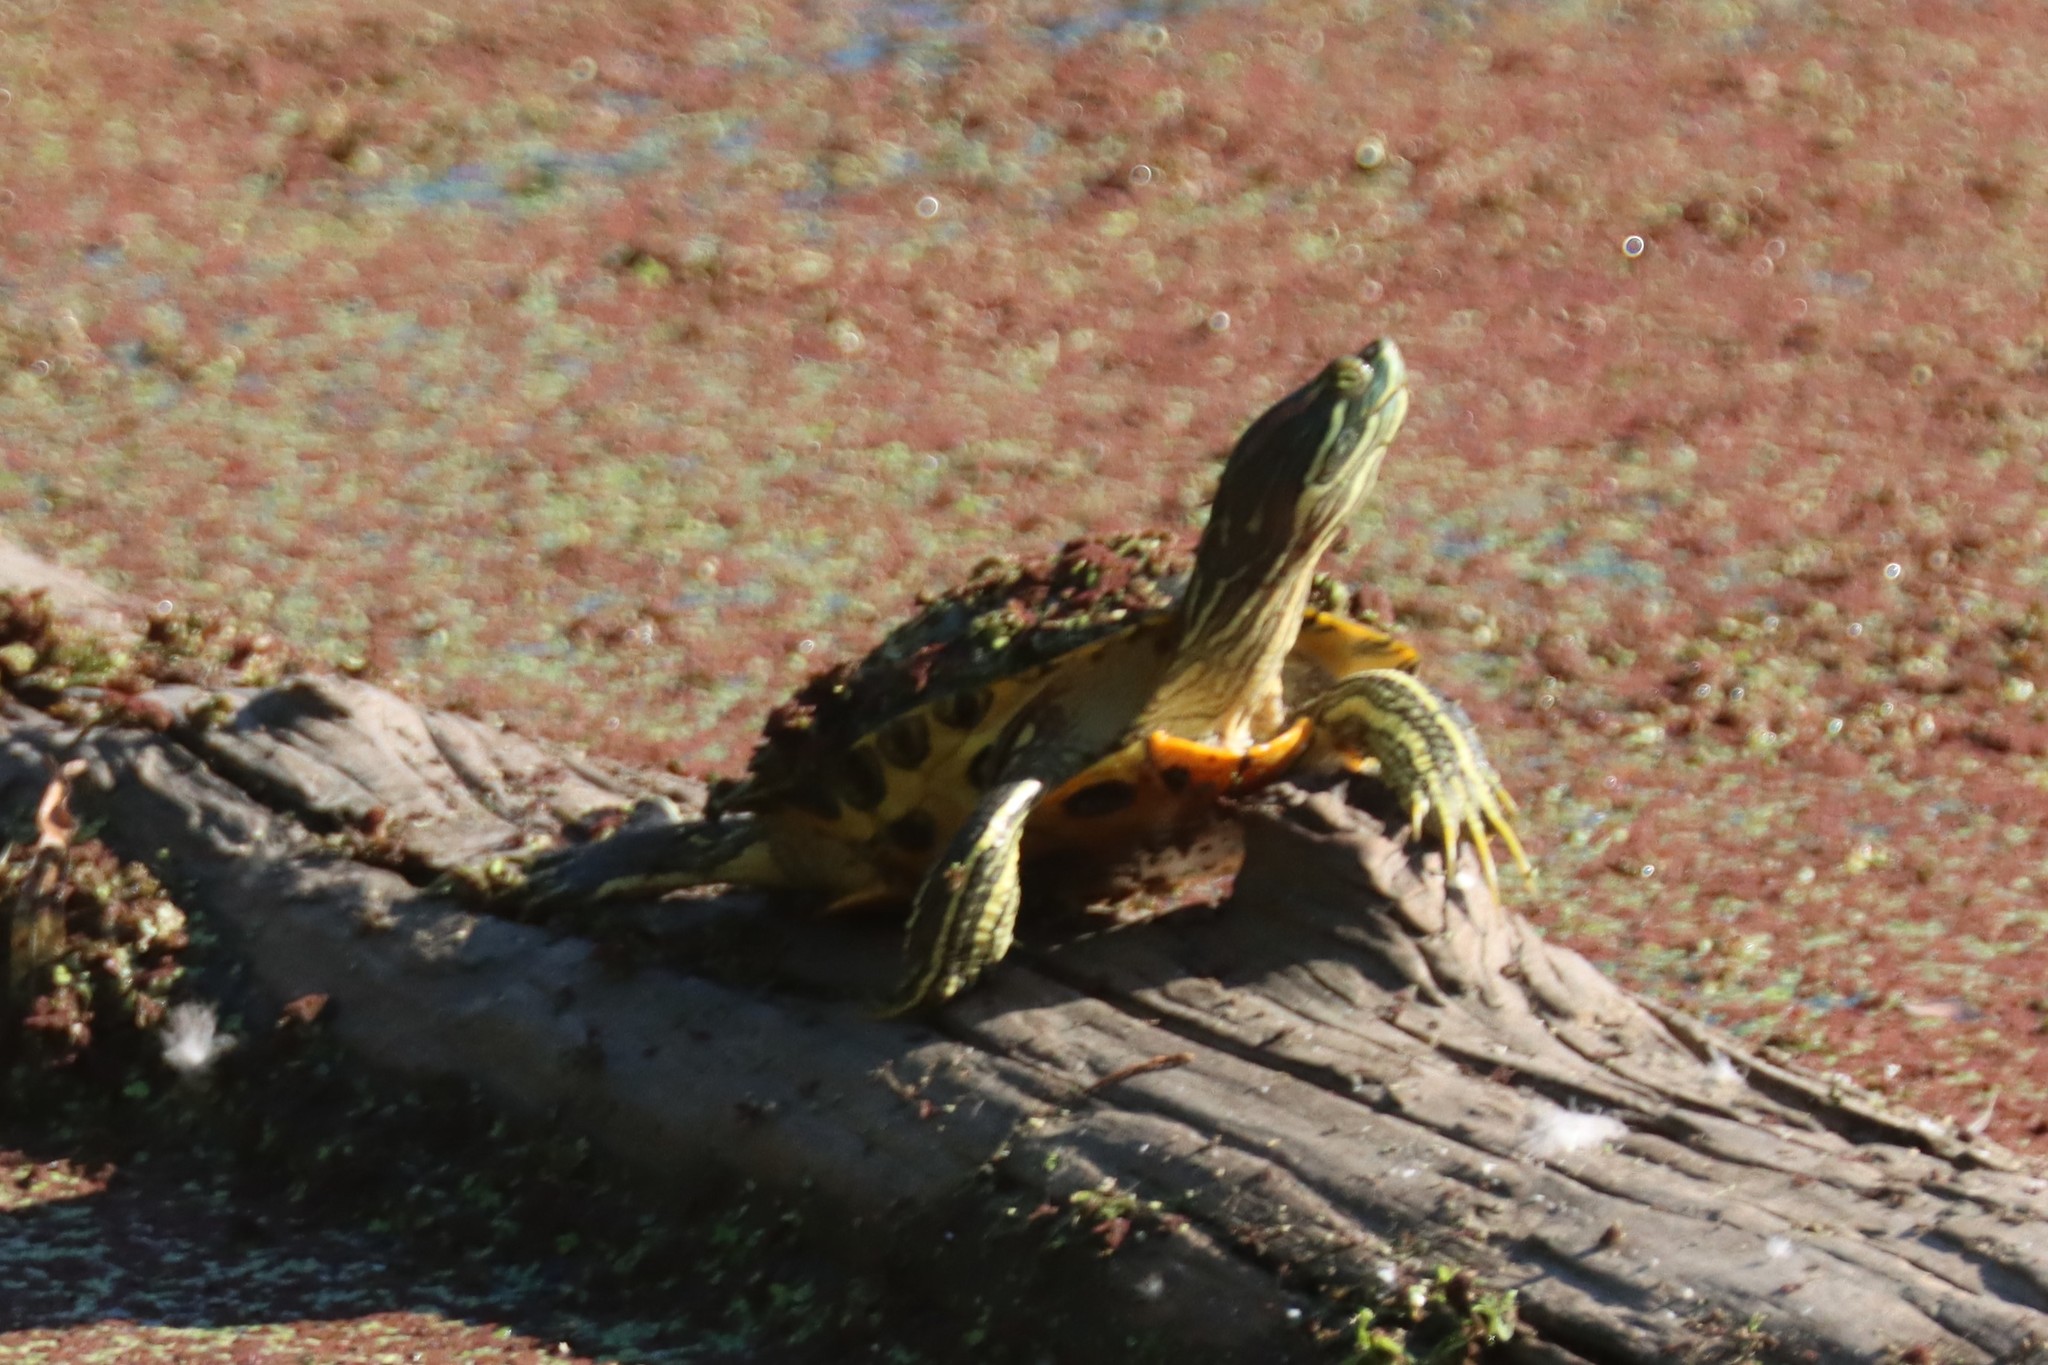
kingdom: Animalia
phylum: Chordata
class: Testudines
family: Emydidae
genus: Trachemys
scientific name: Trachemys scripta
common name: Slider
